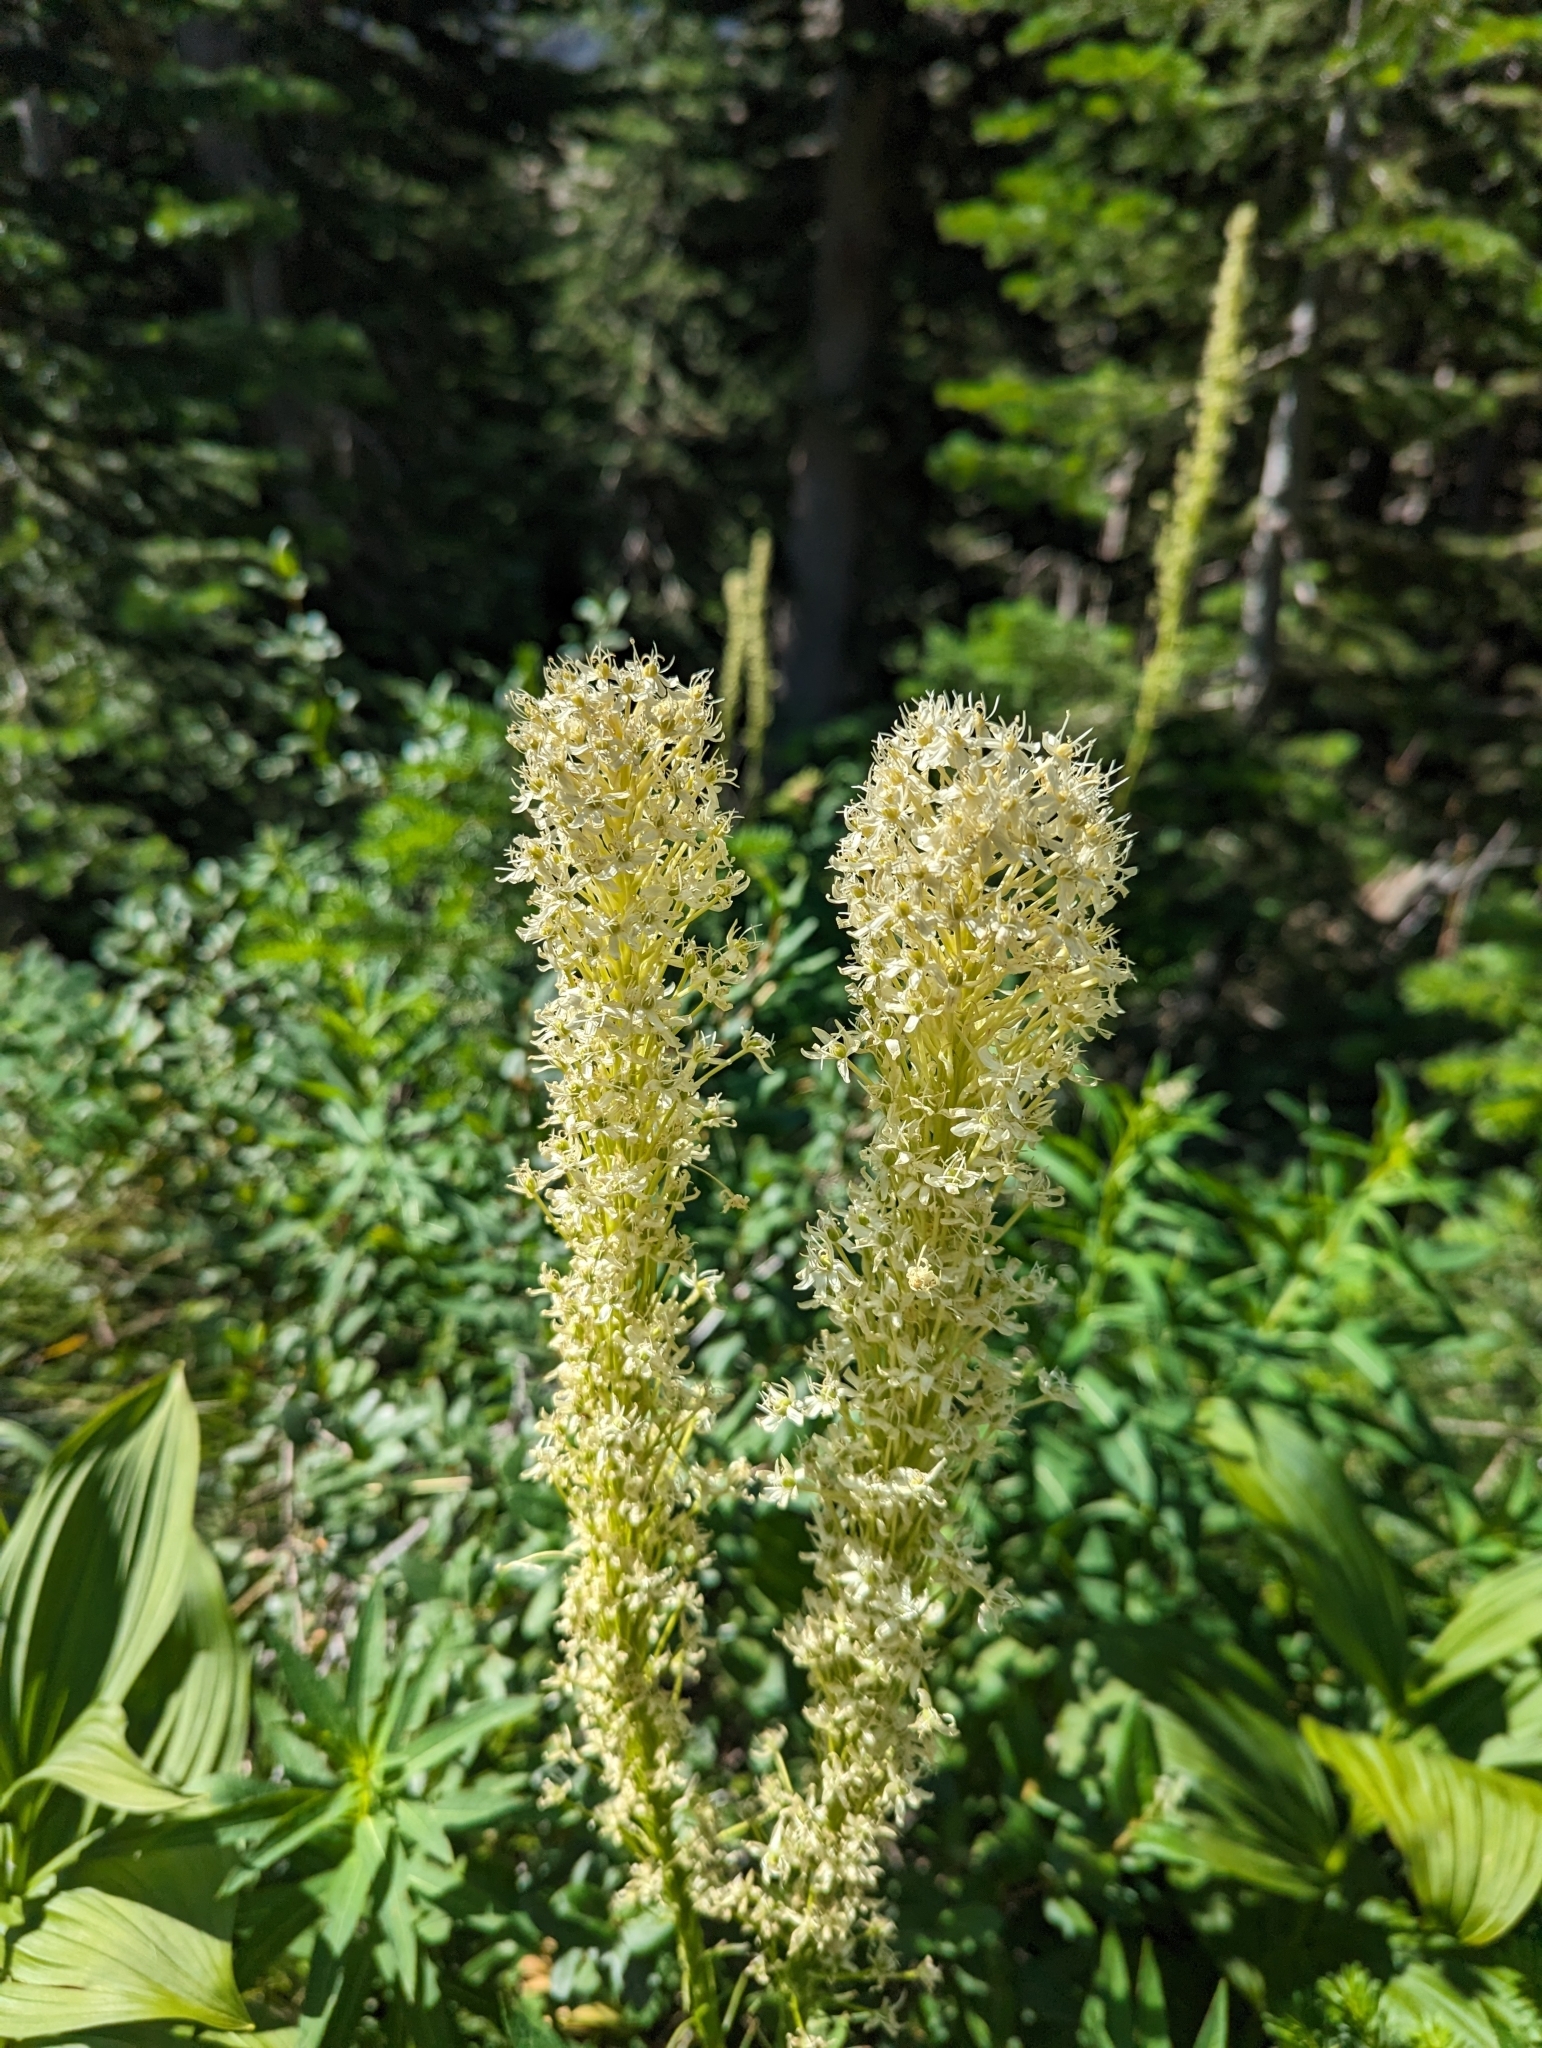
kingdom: Plantae
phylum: Tracheophyta
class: Liliopsida
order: Liliales
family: Melanthiaceae
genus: Xerophyllum
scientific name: Xerophyllum tenax
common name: Bear-grass
